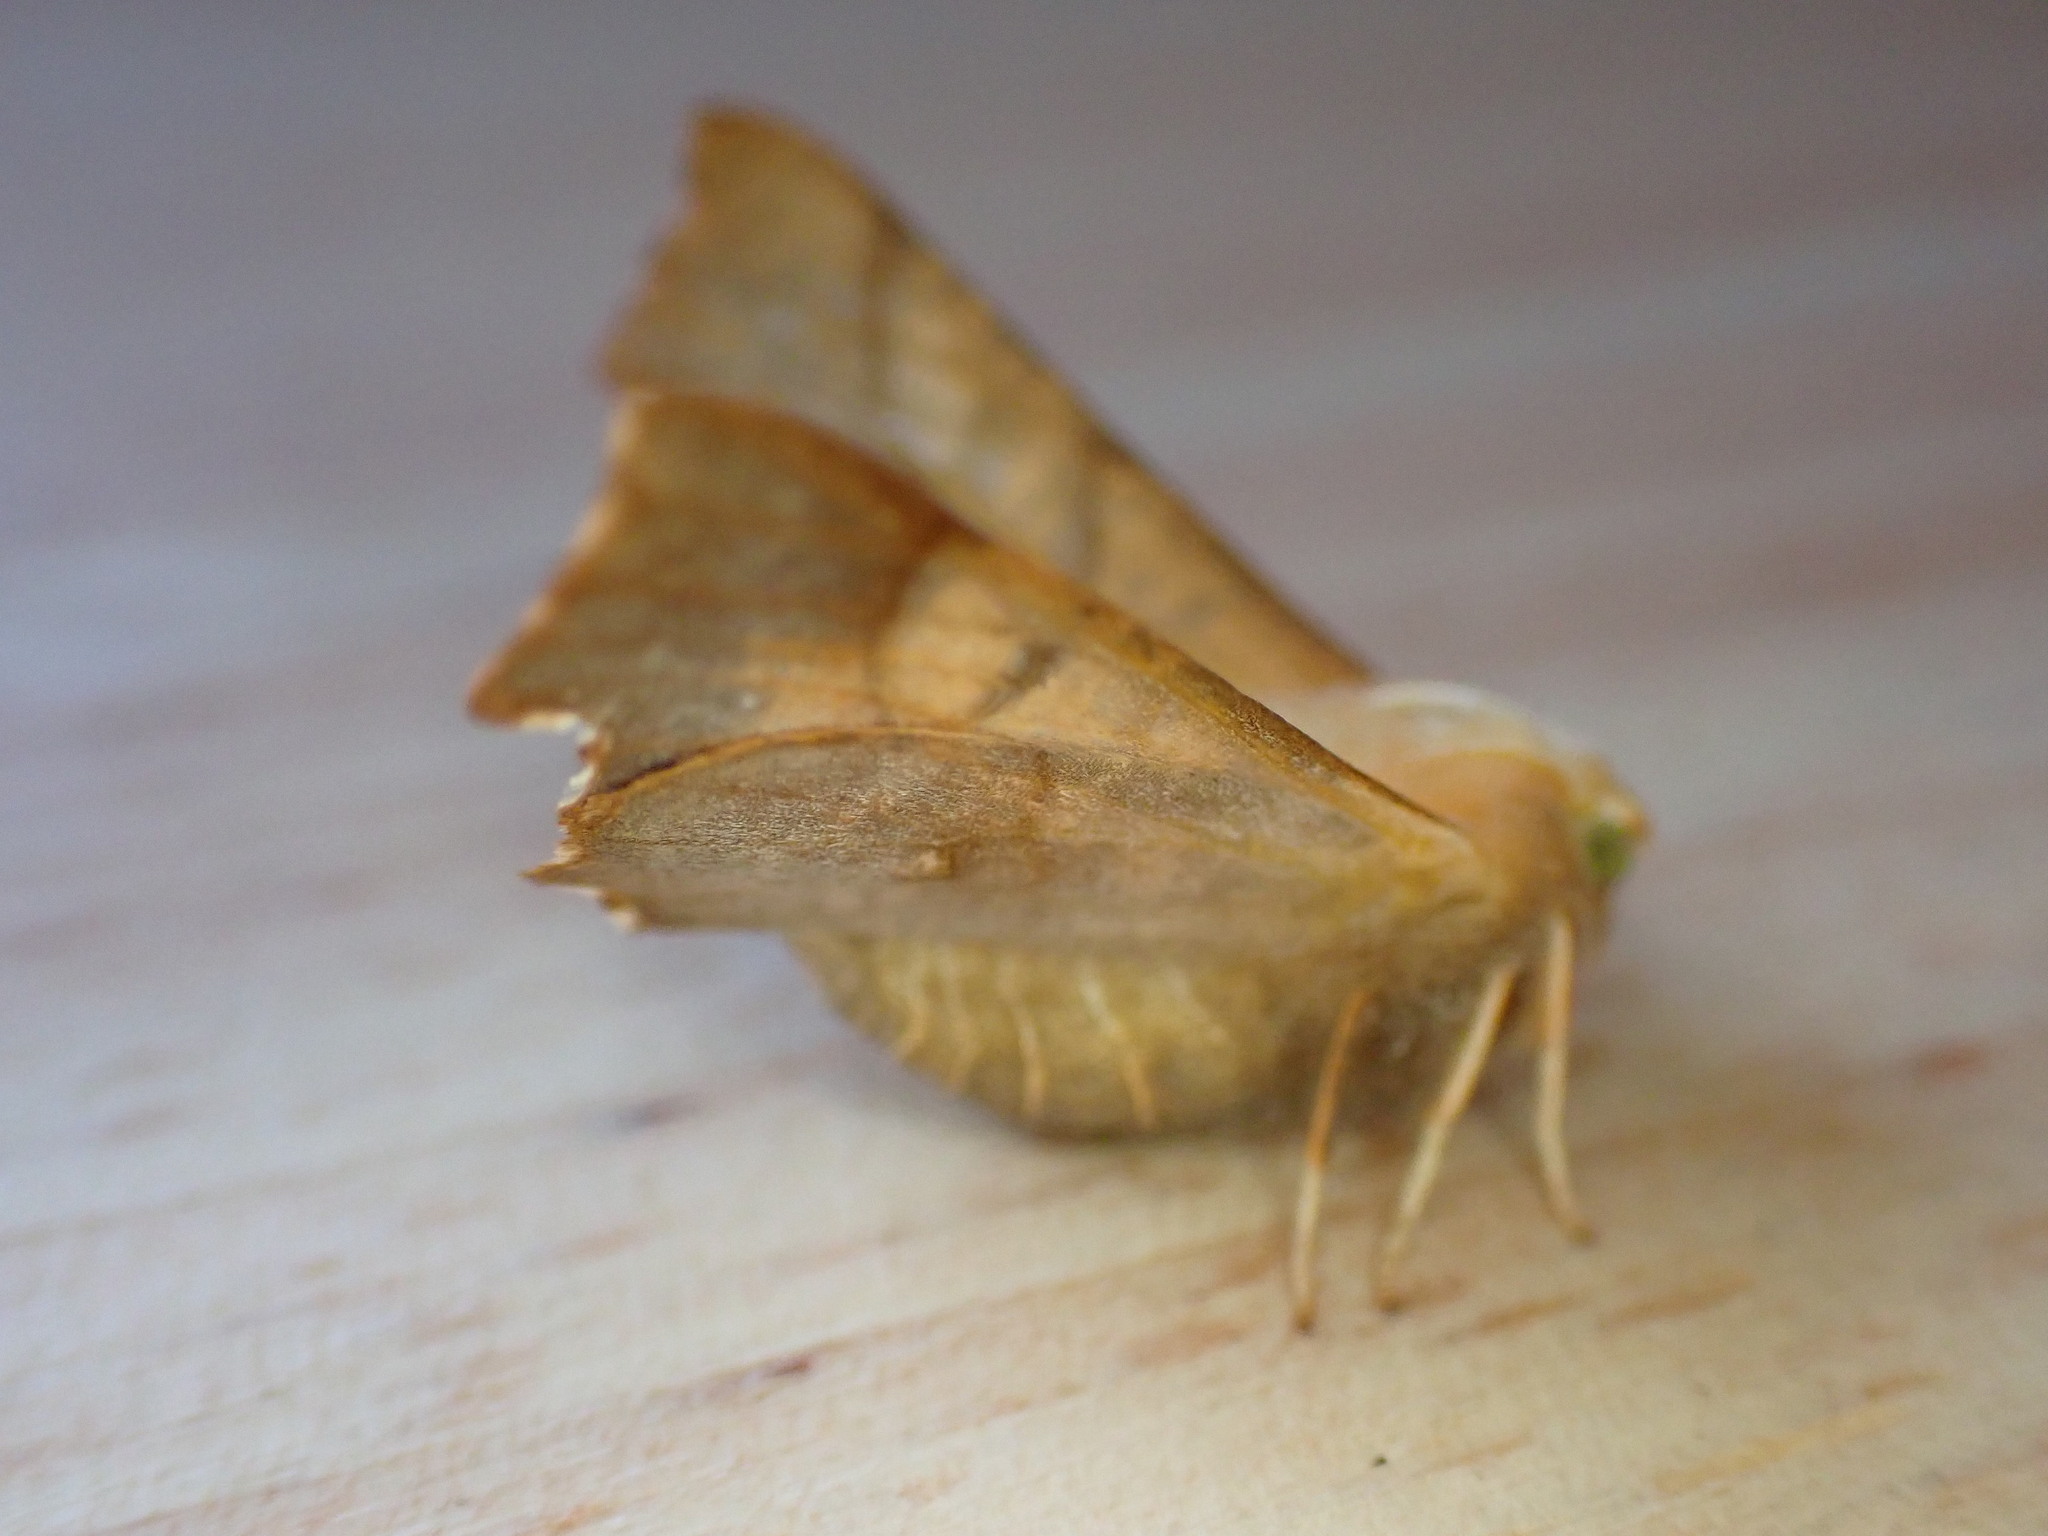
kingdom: Animalia
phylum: Arthropoda
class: Insecta
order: Lepidoptera
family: Geometridae
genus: Ennomos
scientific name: Ennomos fuscantaria
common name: Dusky thorn
